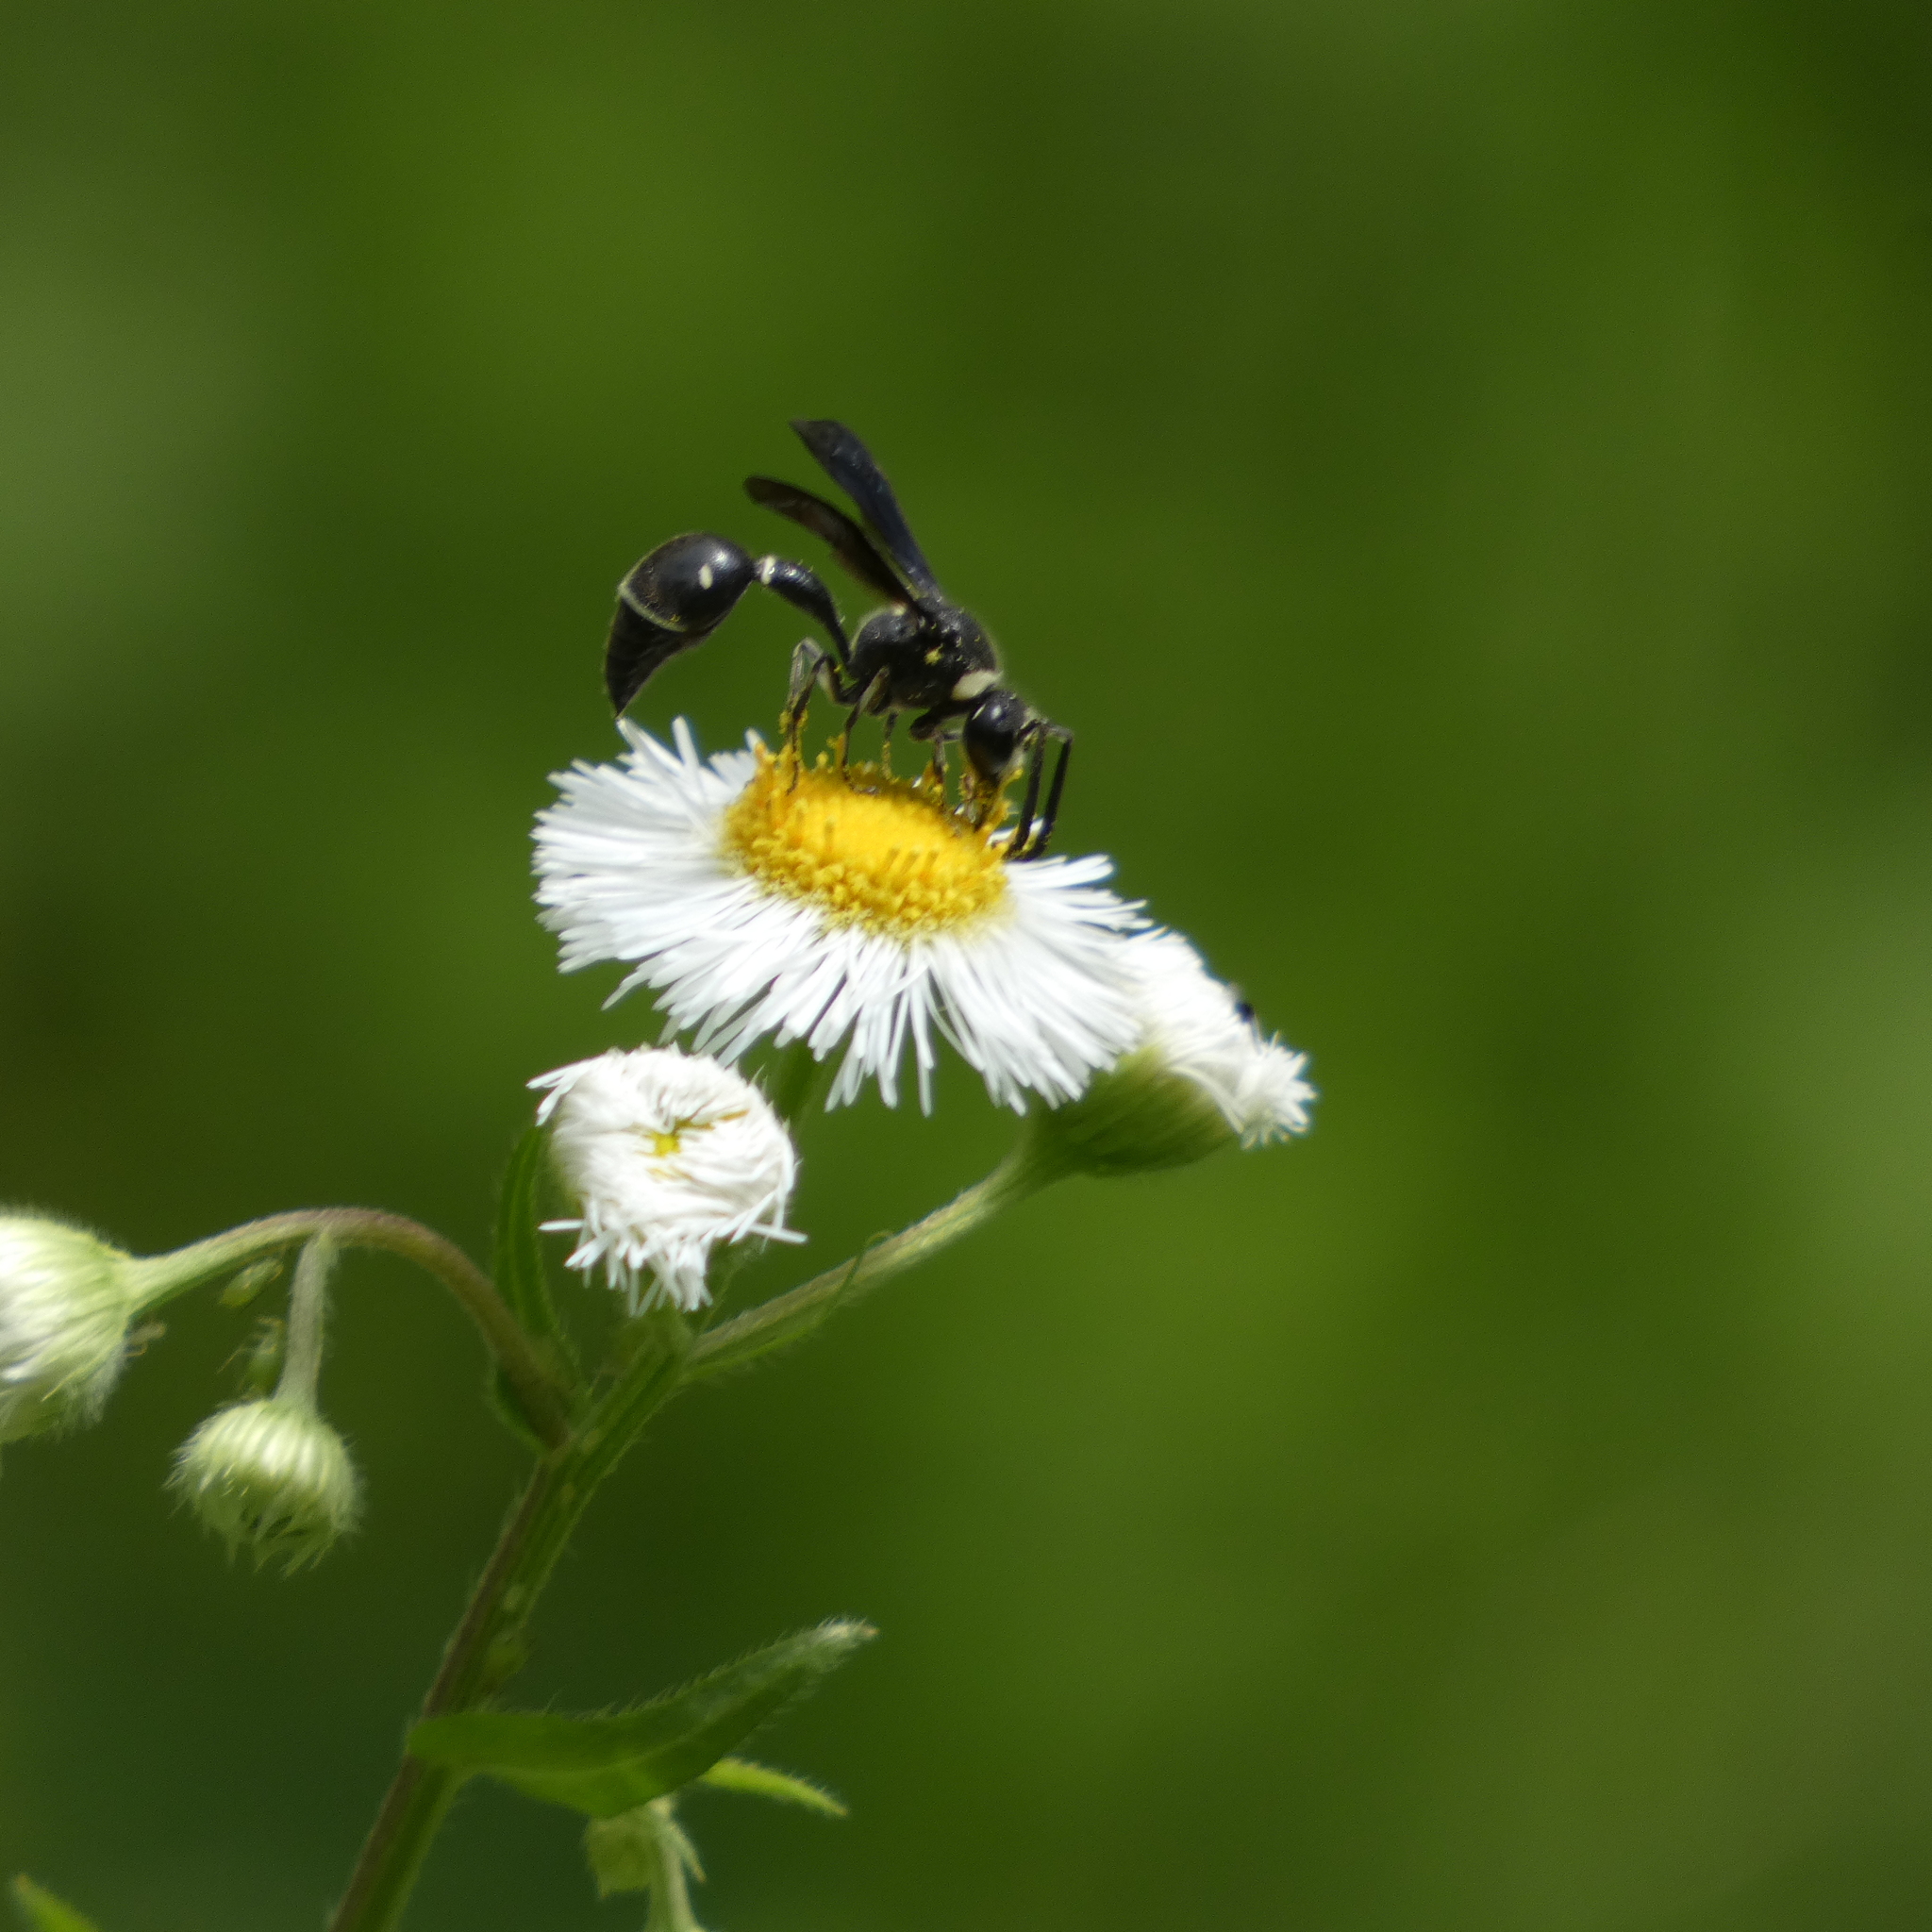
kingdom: Animalia
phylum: Arthropoda
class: Insecta
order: Hymenoptera
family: Vespidae
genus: Eumenes
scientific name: Eumenes fraternus
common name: Fraternal potter wasp
